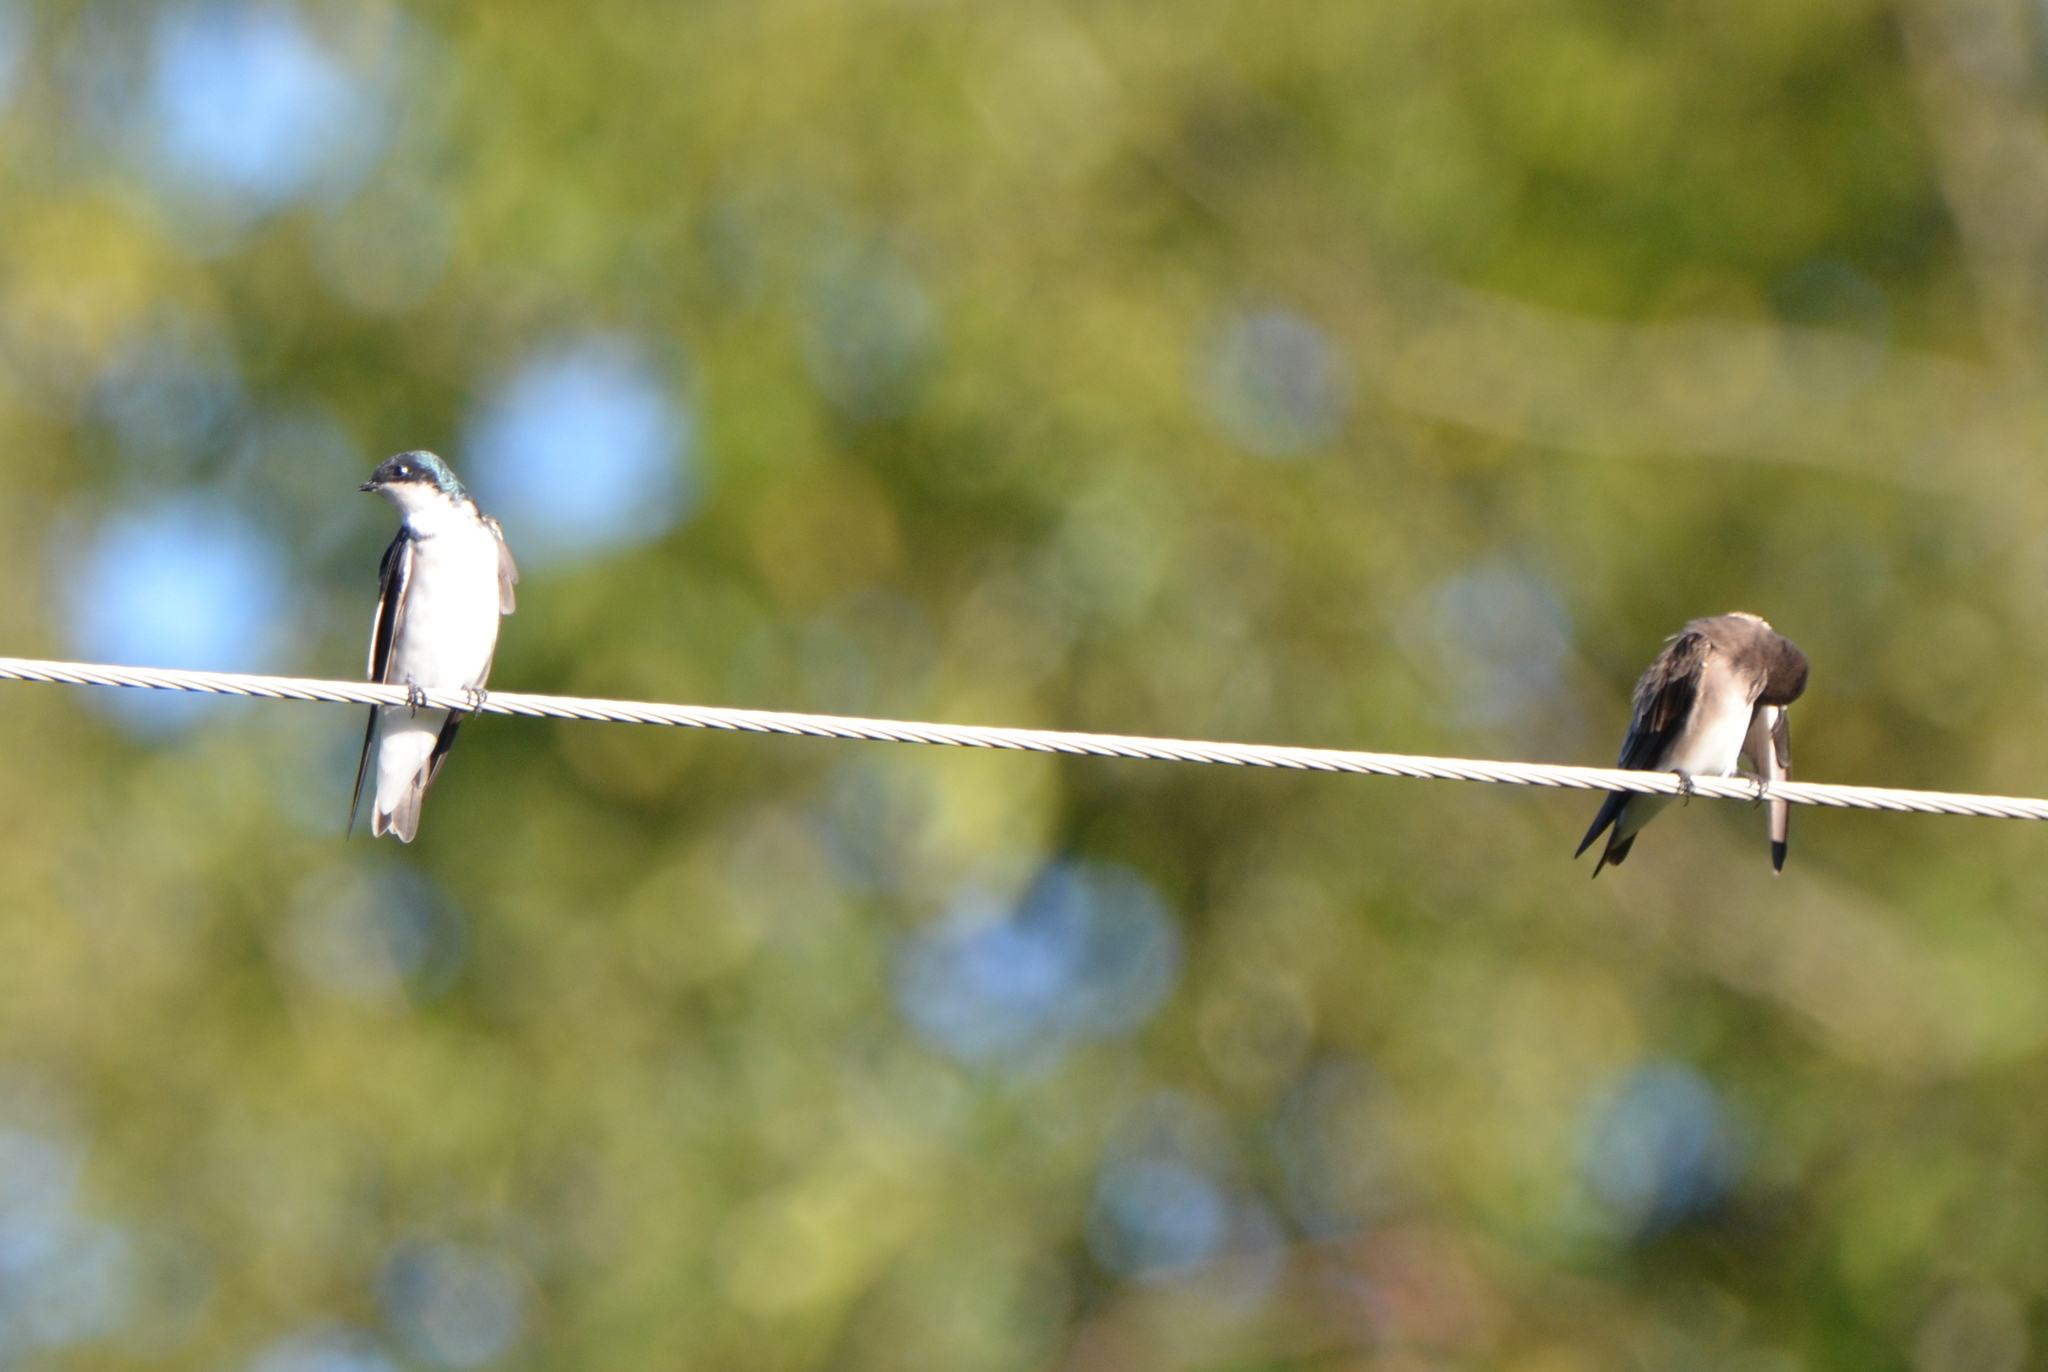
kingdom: Animalia
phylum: Chordata
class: Aves
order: Passeriformes
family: Hirundinidae
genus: Tachycineta
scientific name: Tachycineta bicolor
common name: Tree swallow
